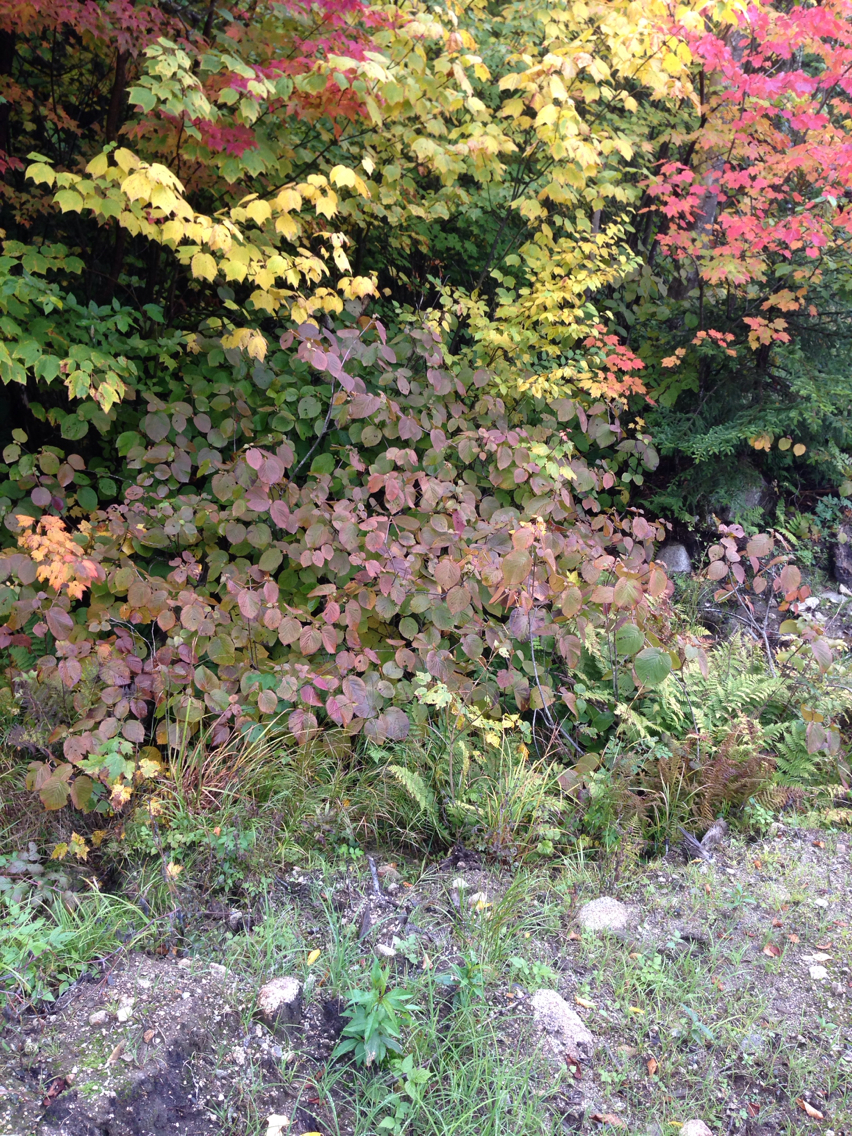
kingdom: Plantae
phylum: Tracheophyta
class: Magnoliopsida
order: Dipsacales
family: Viburnaceae
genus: Viburnum
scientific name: Viburnum lantanoides
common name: Hobblebush
